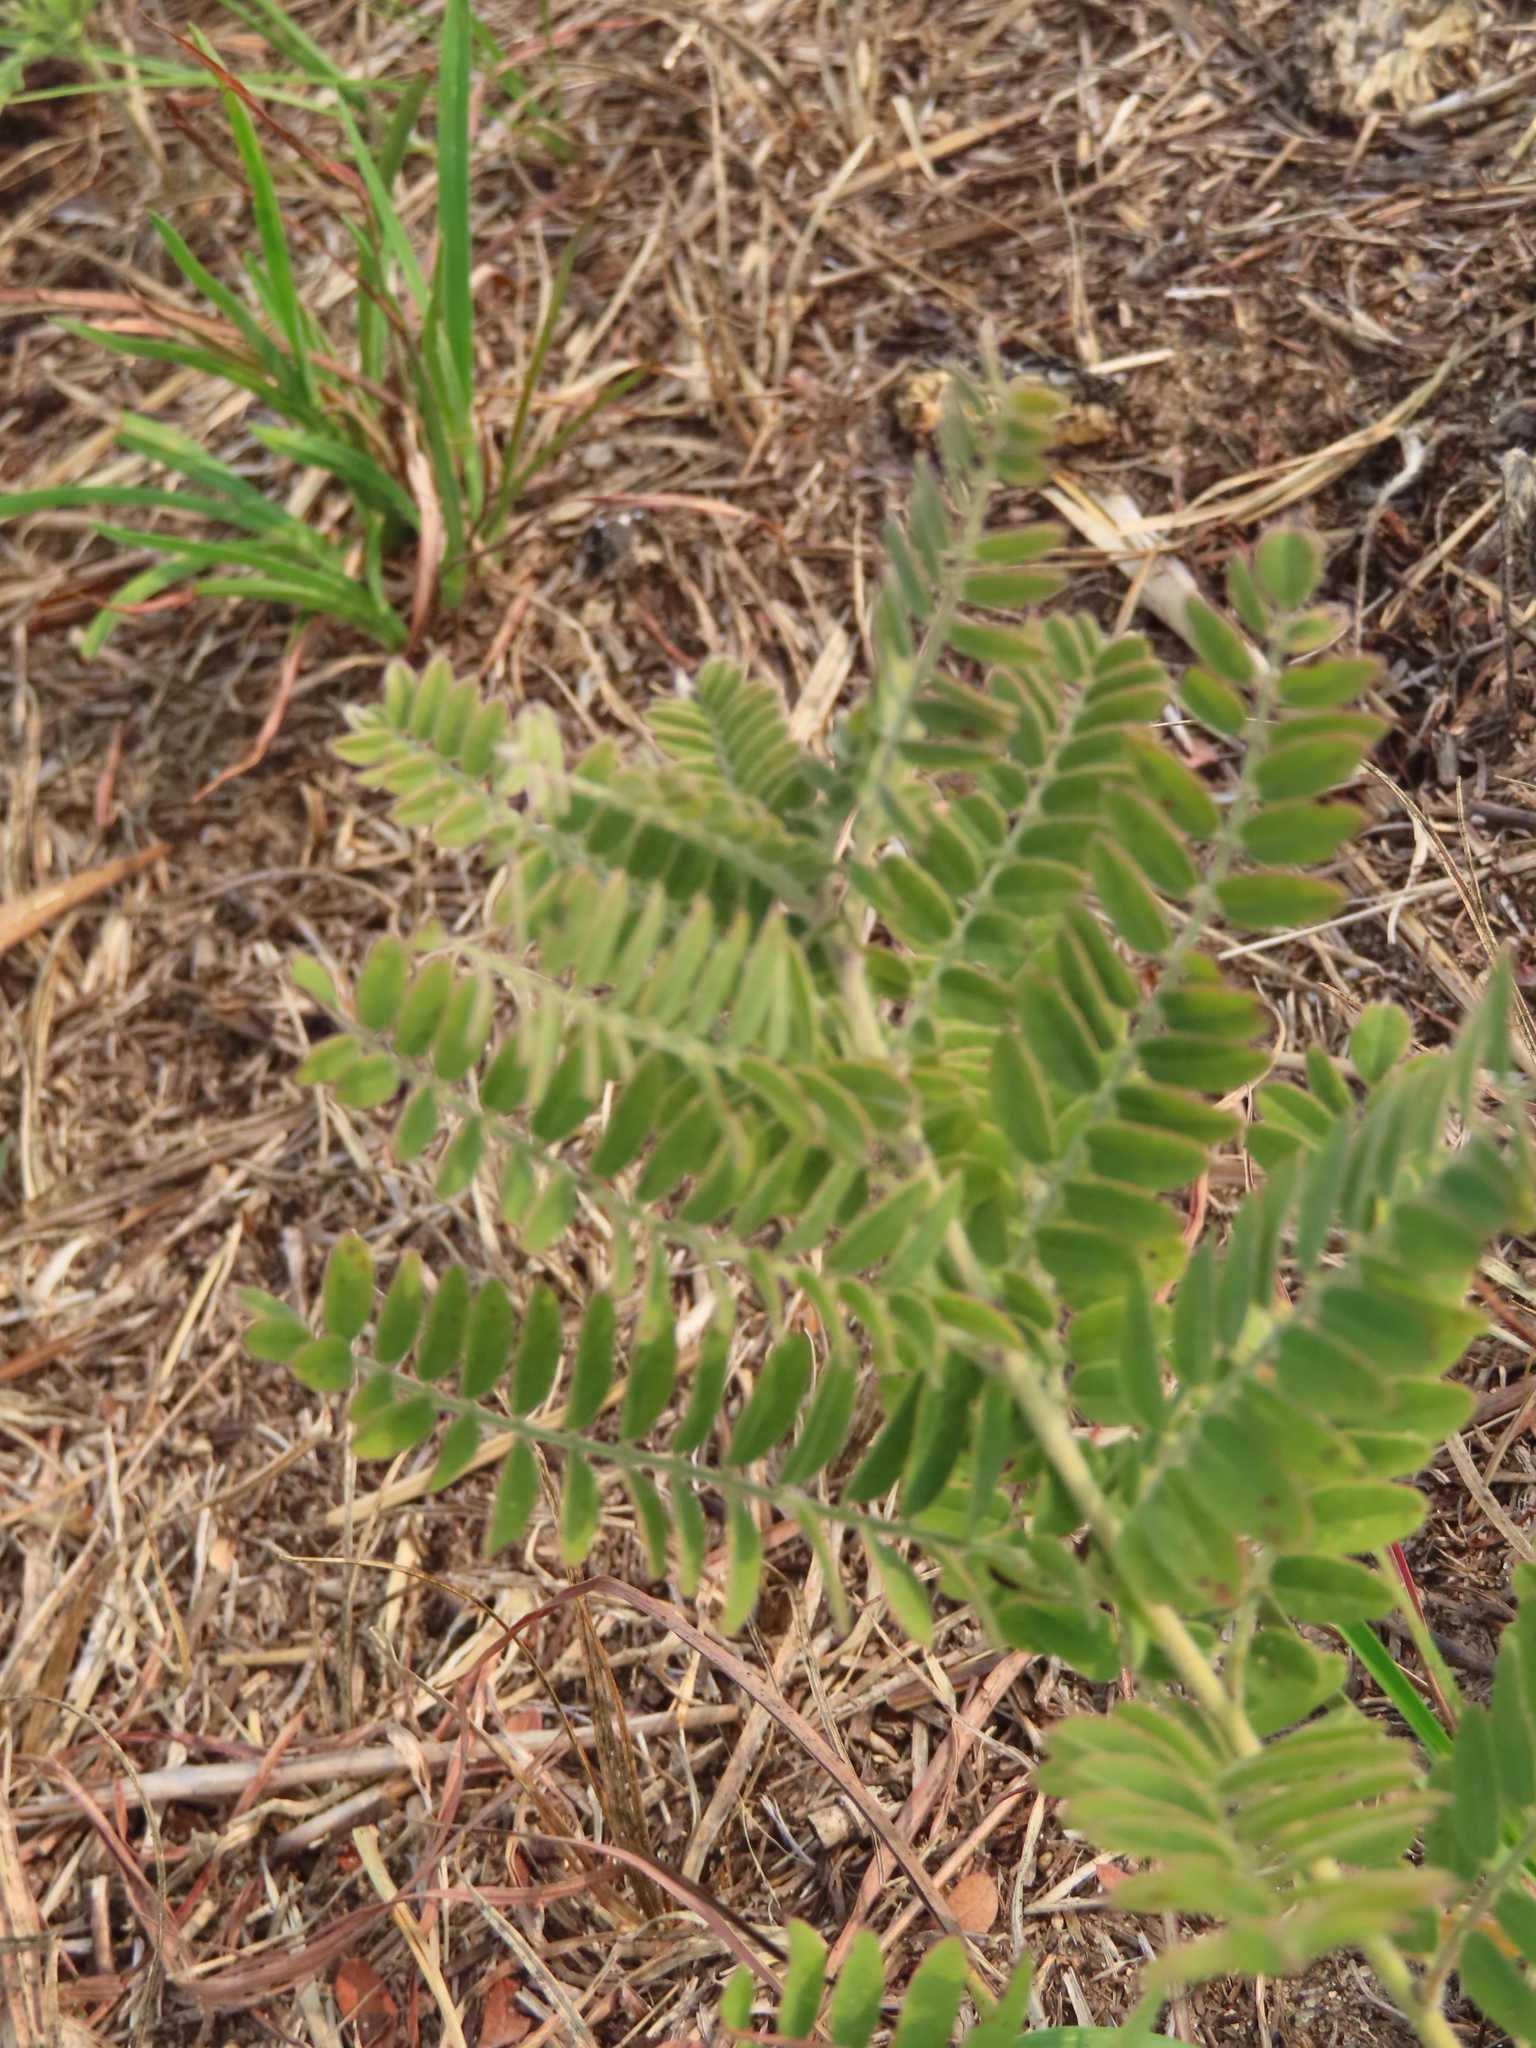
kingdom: Plantae
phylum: Tracheophyta
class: Magnoliopsida
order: Fabales
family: Fabaceae
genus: Amorpha
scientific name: Amorpha canescens
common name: Leadplant
